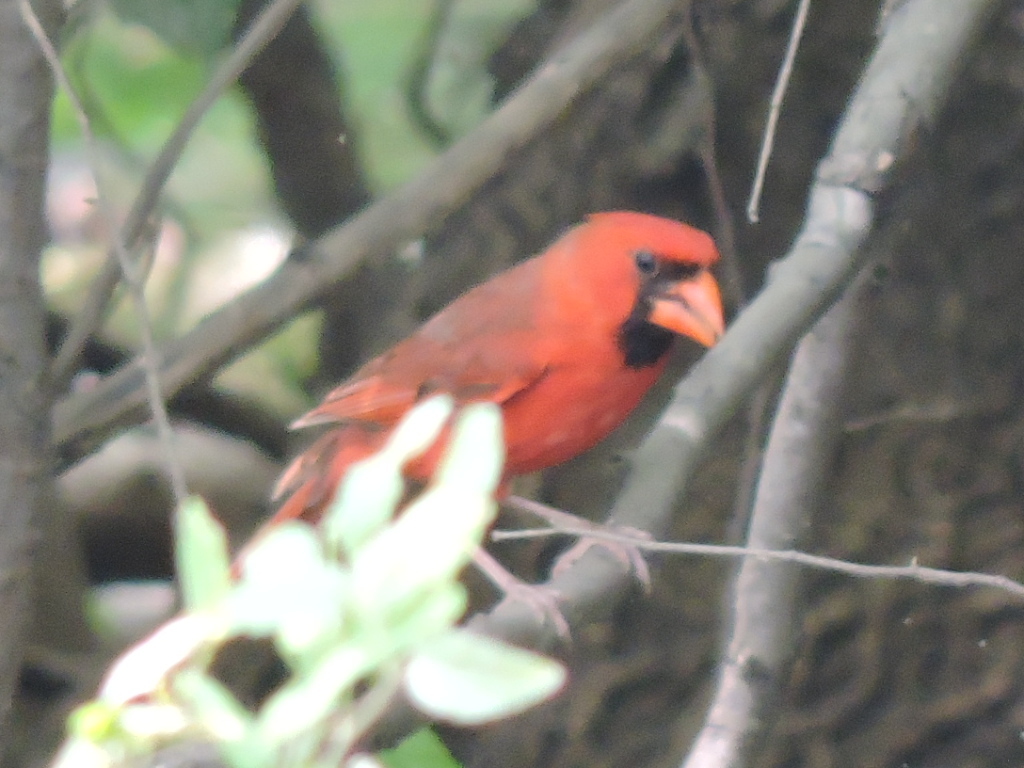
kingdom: Animalia
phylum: Chordata
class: Aves
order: Passeriformes
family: Cardinalidae
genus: Cardinalis
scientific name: Cardinalis cardinalis
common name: Northern cardinal
